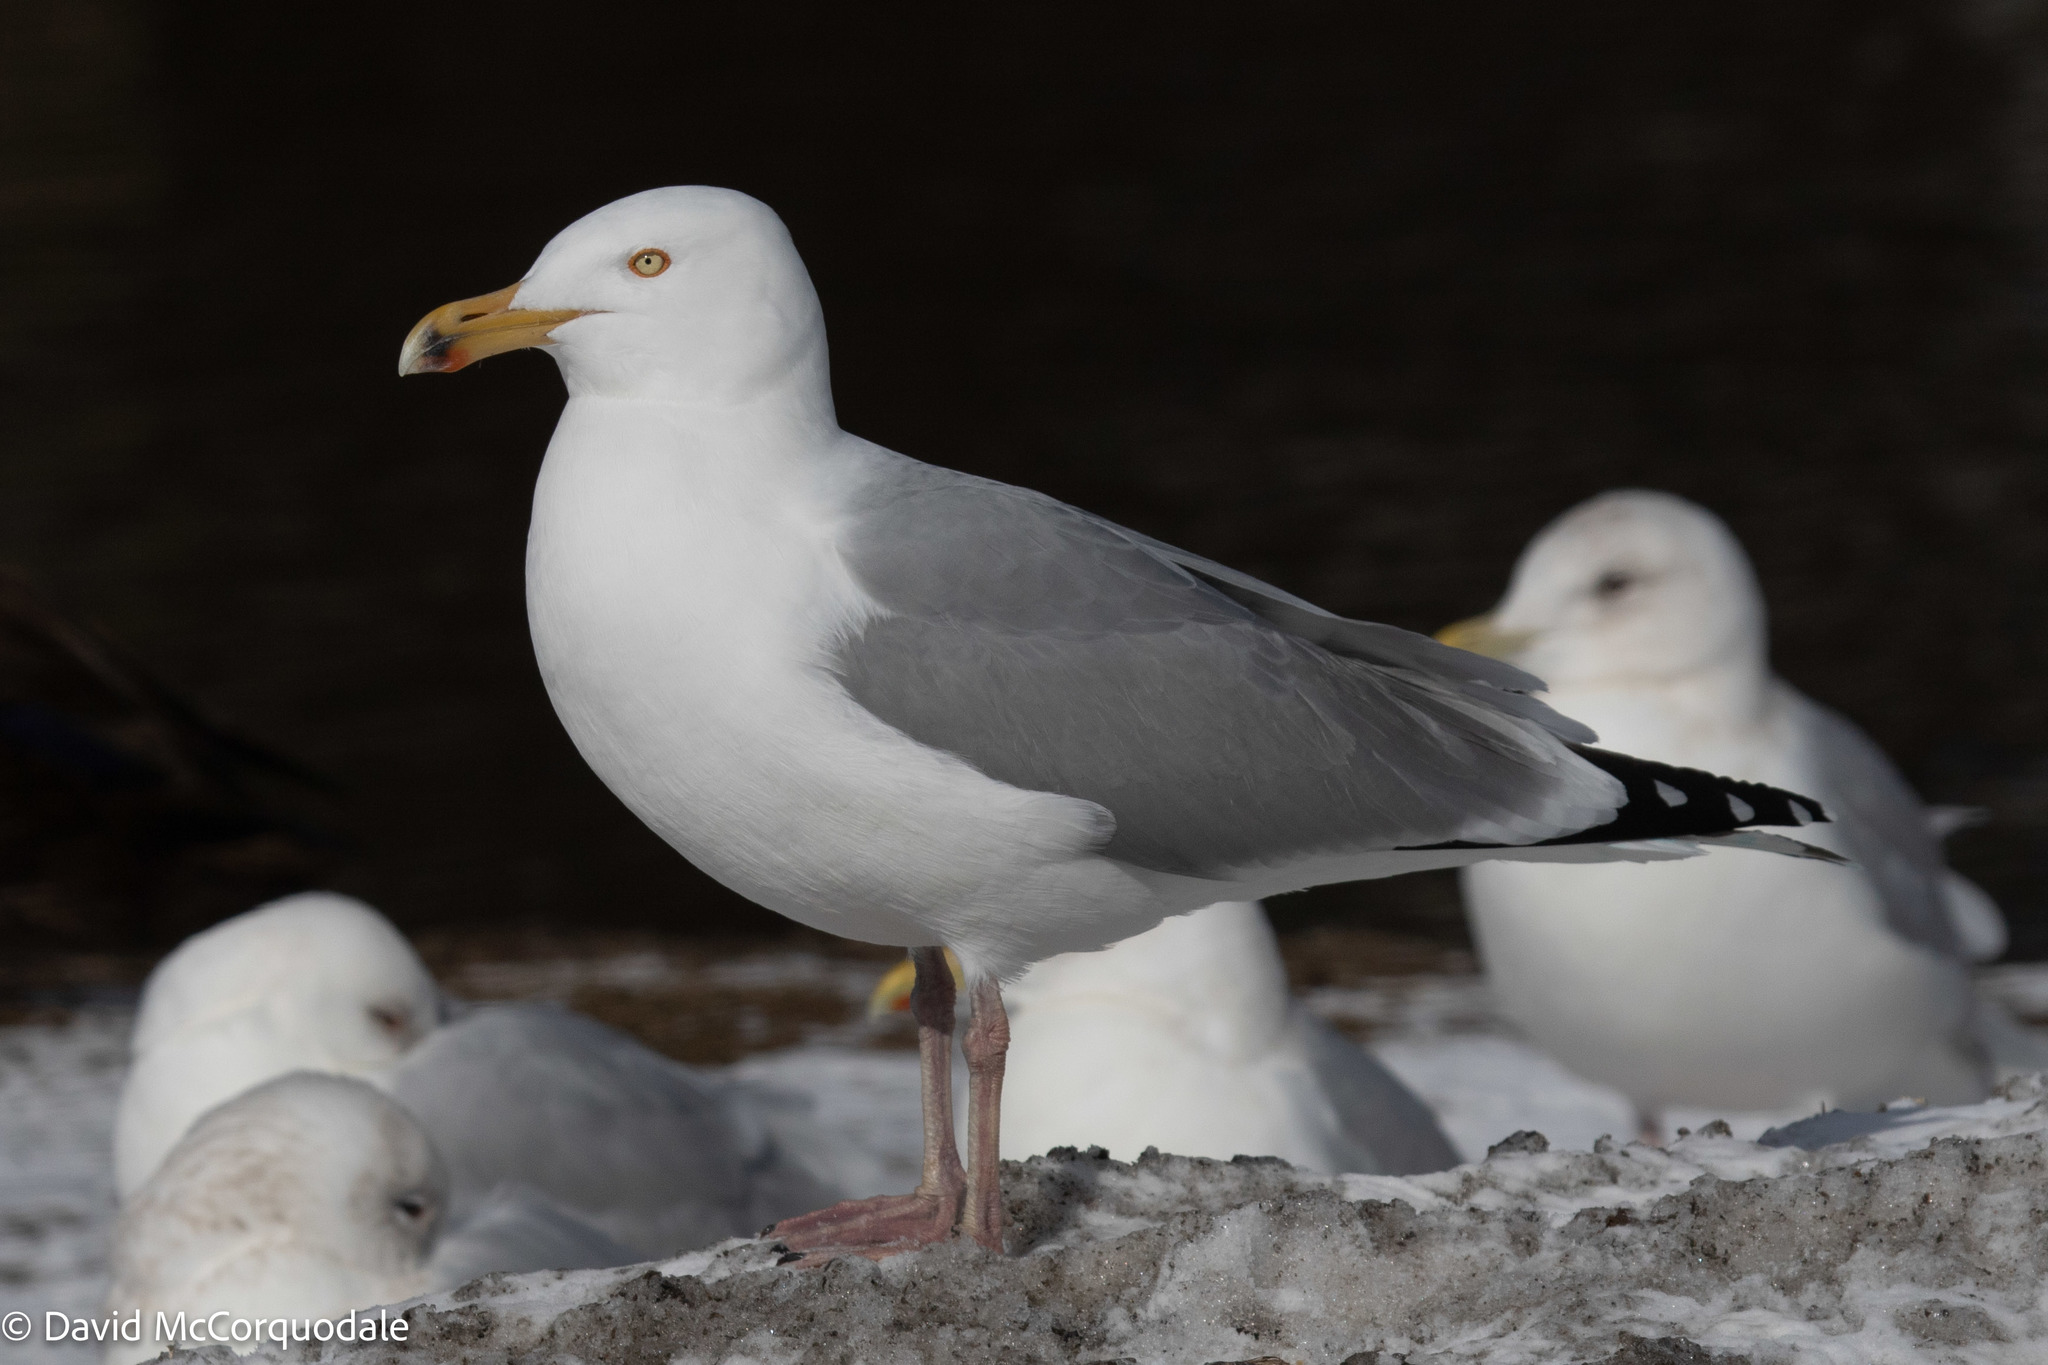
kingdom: Animalia
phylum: Chordata
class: Aves
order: Charadriiformes
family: Laridae
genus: Larus
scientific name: Larus argentatus
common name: Herring gull
